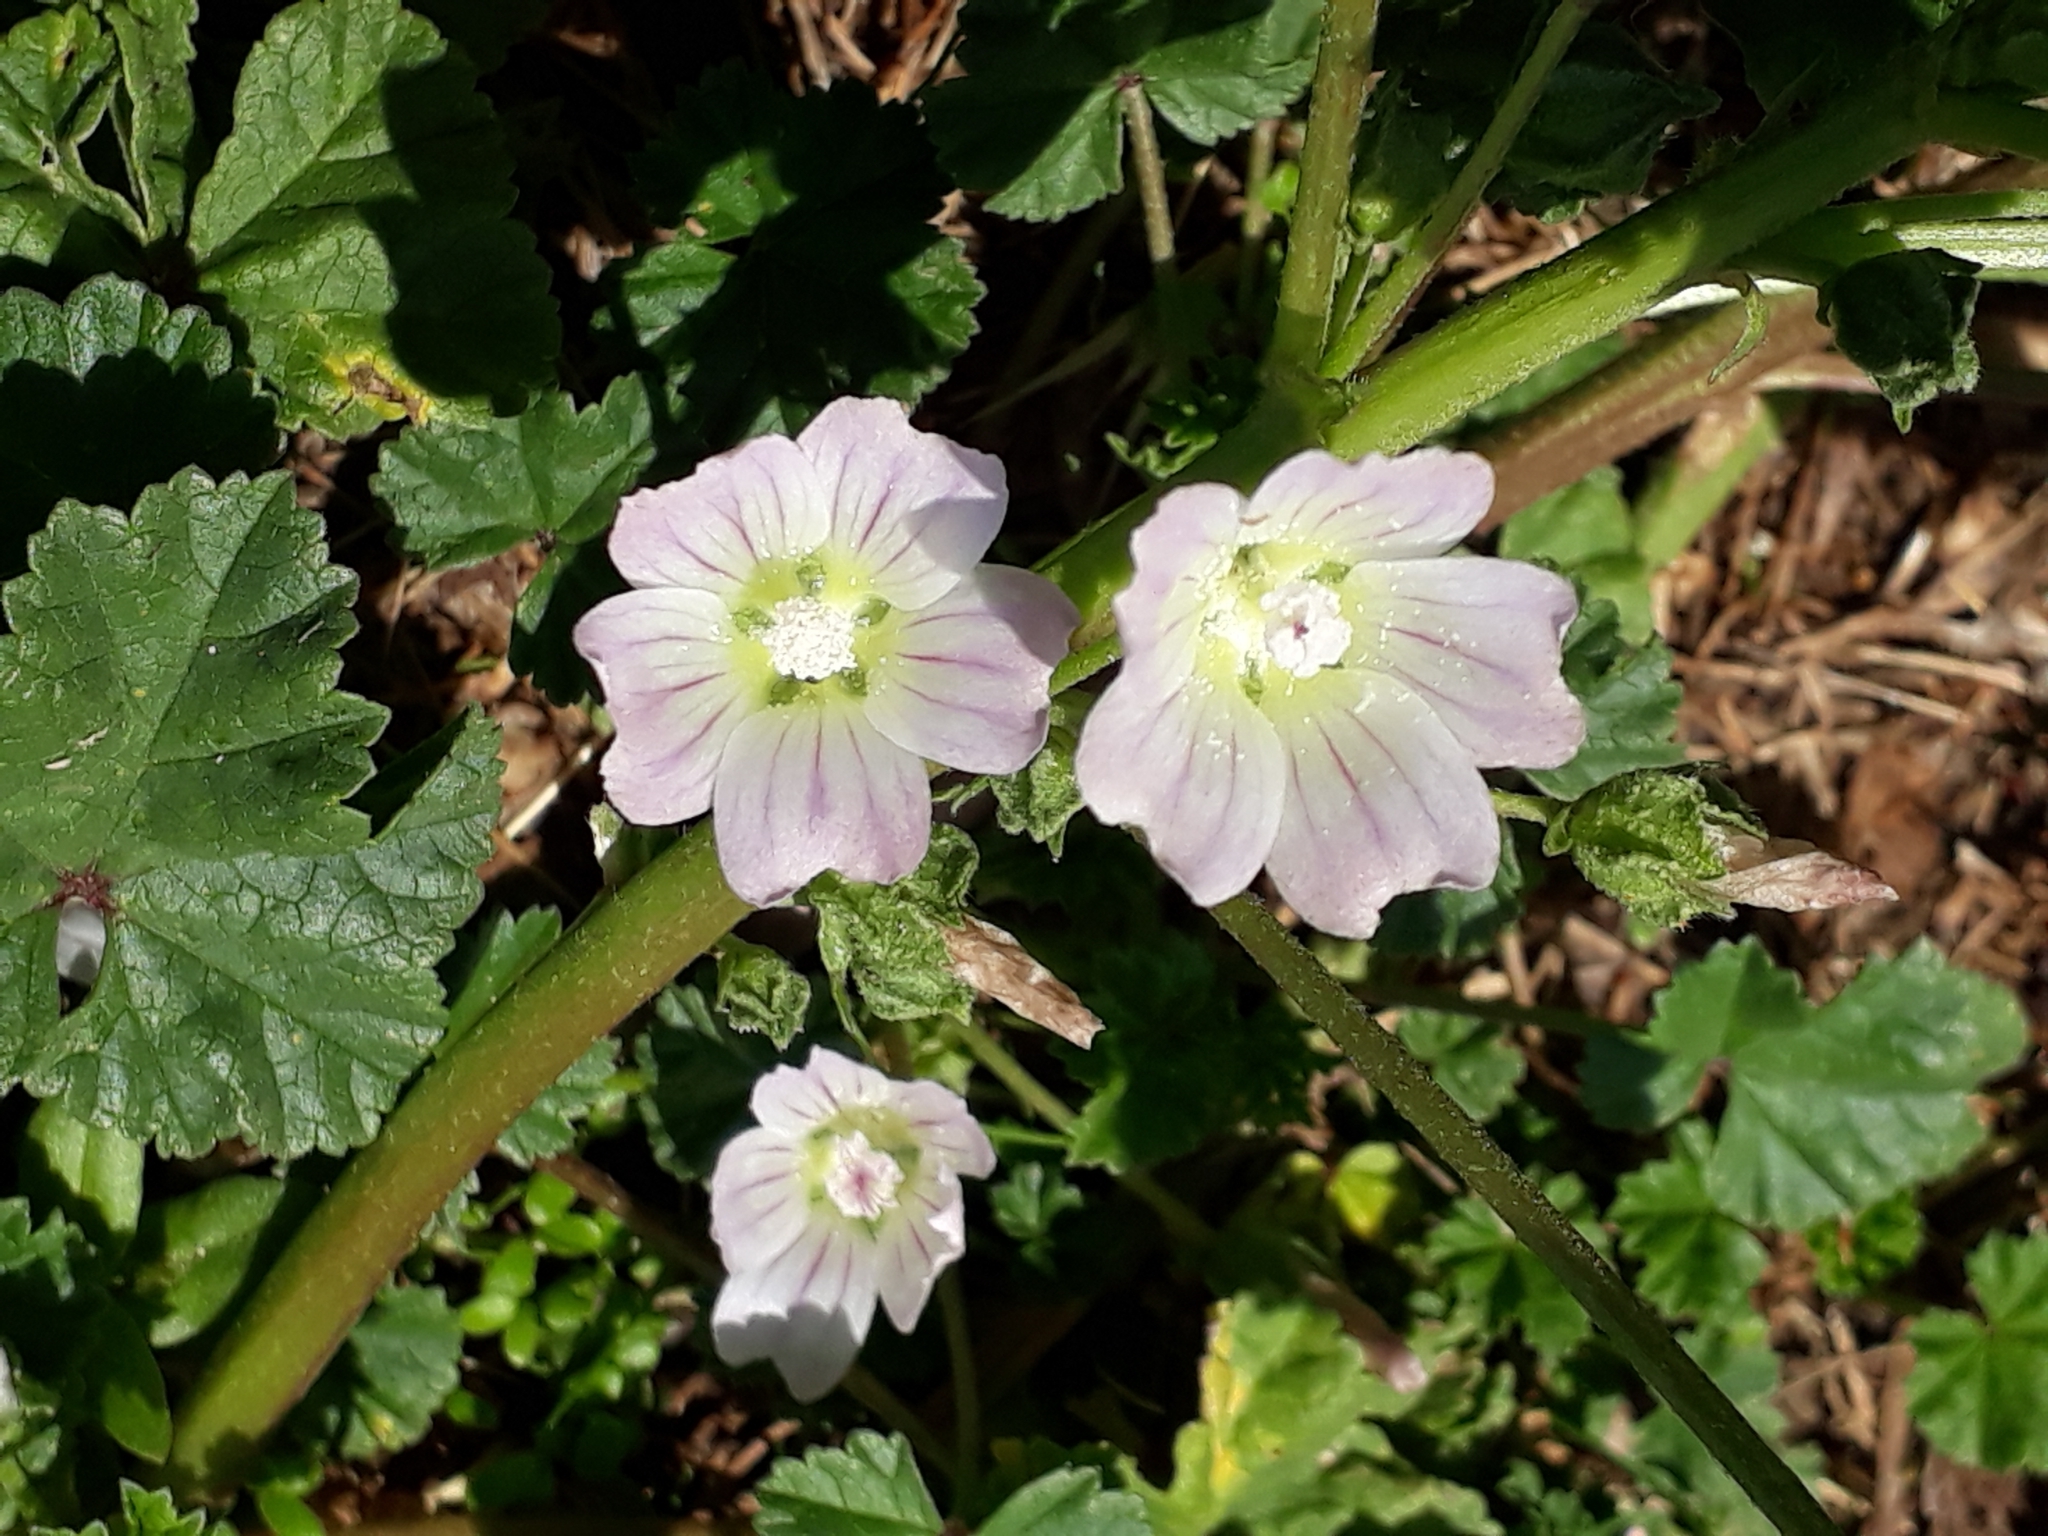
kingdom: Plantae
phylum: Tracheophyta
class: Magnoliopsida
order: Malvales
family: Malvaceae
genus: Malva
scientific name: Malva neglecta
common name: Common mallow
